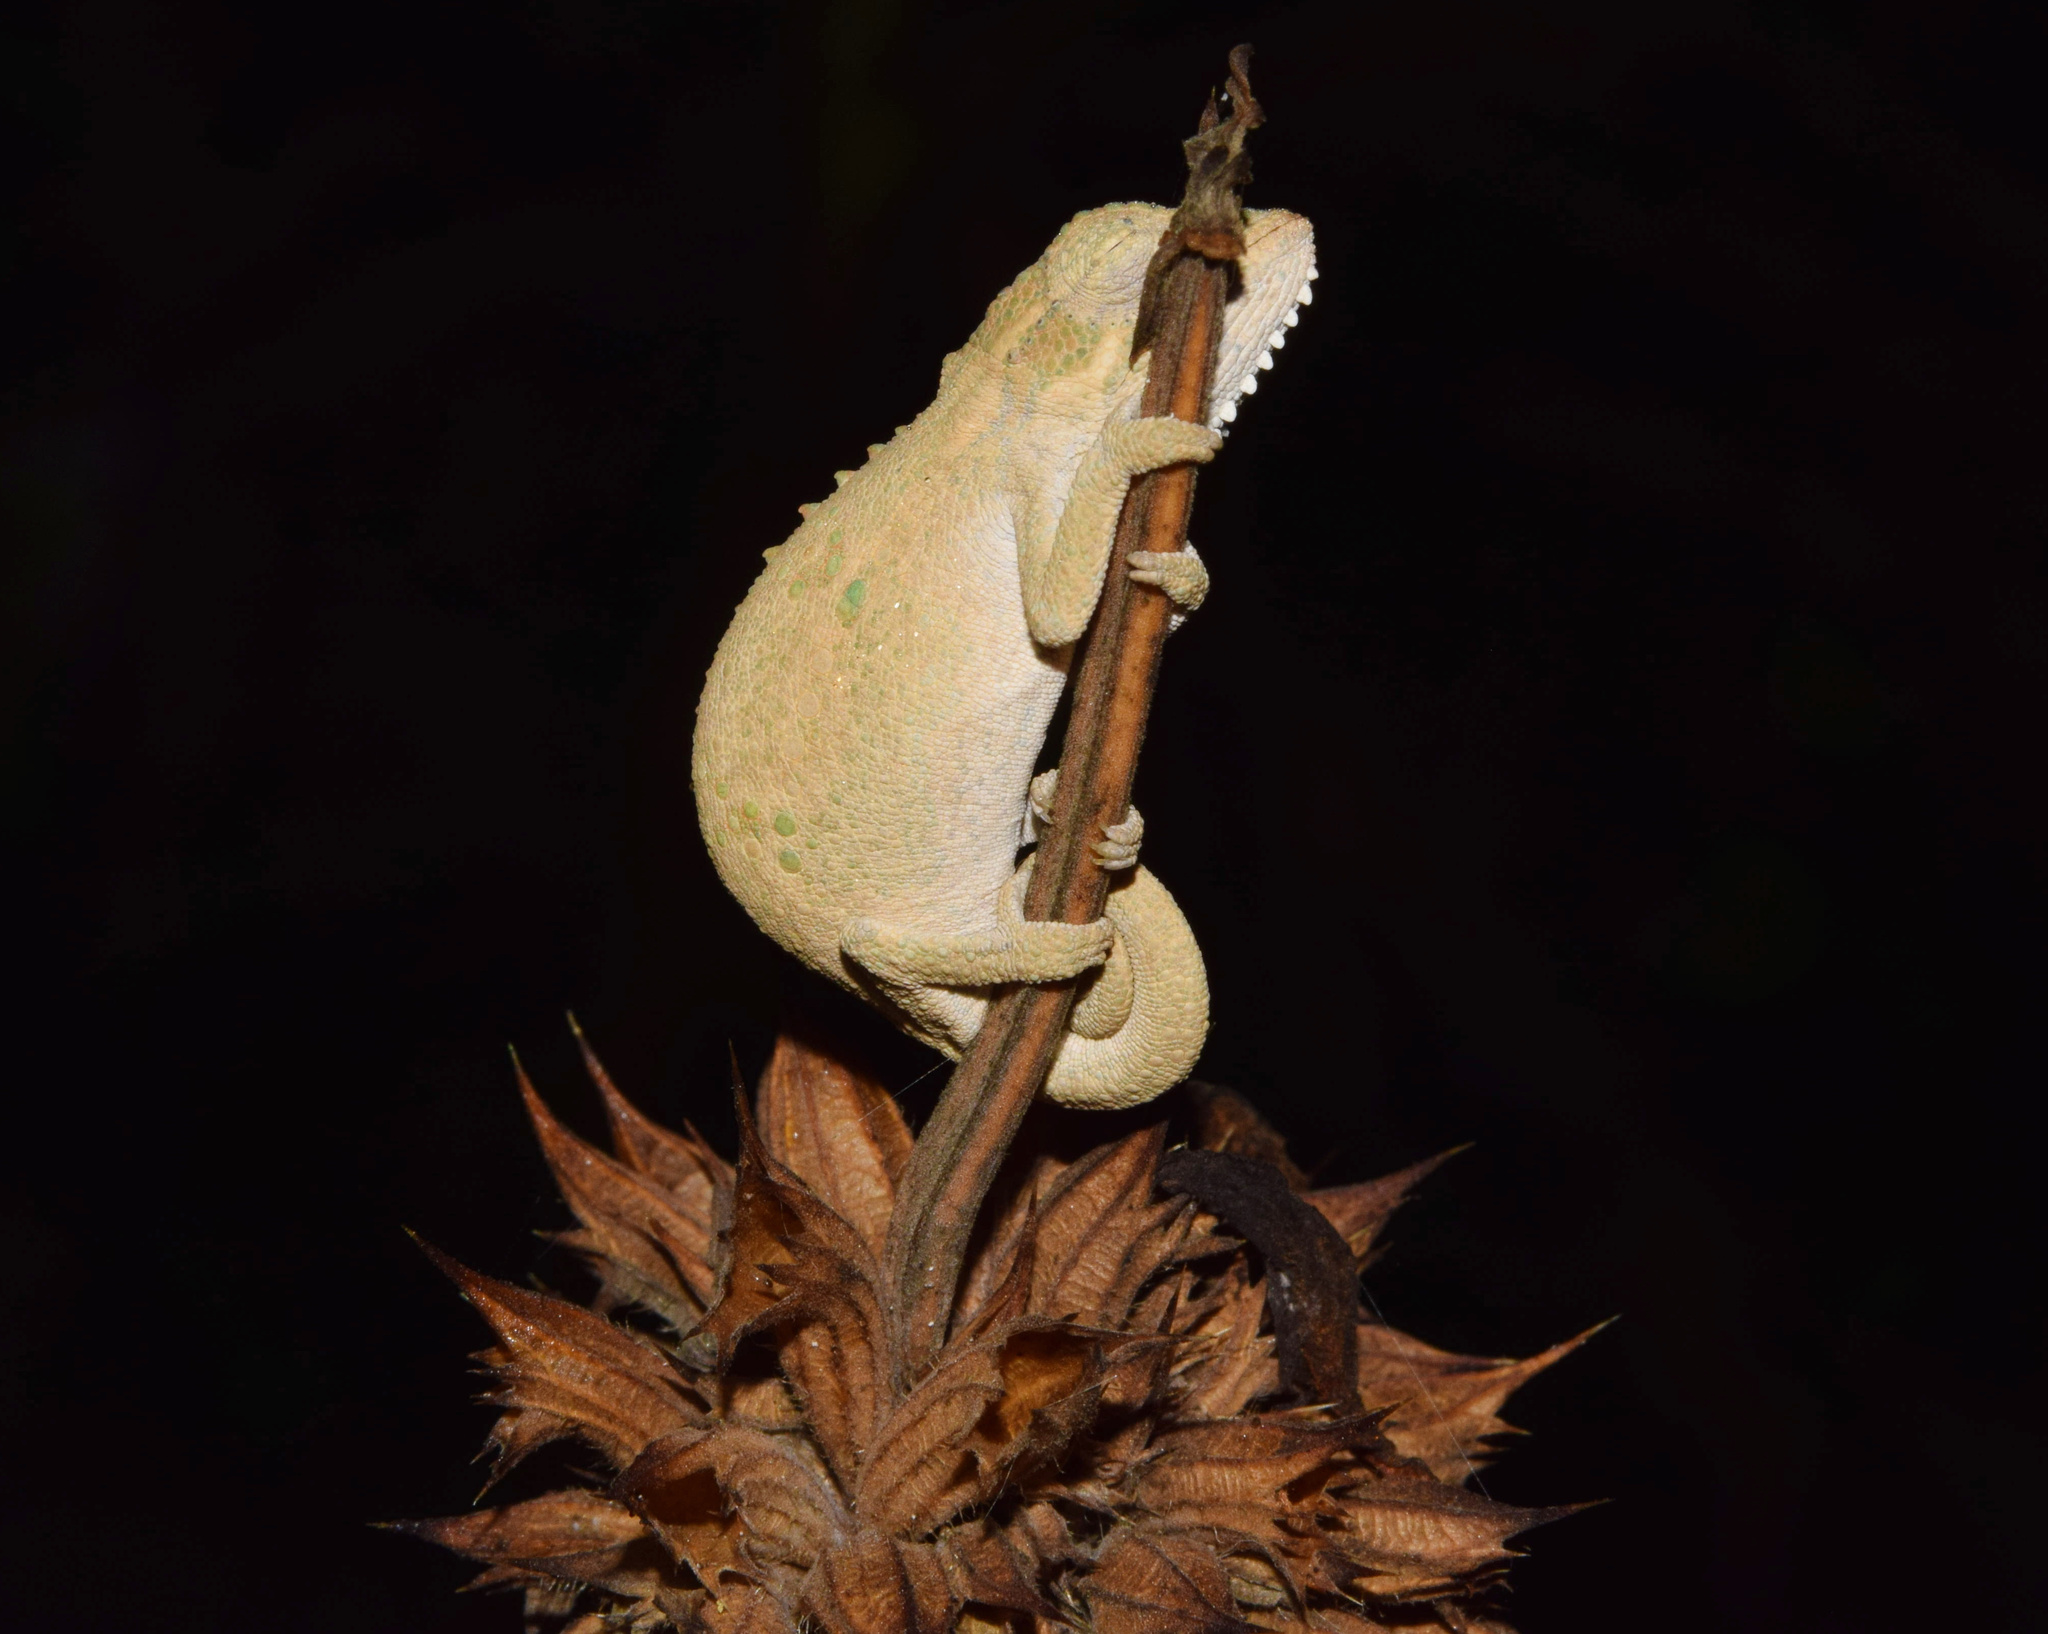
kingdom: Animalia
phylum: Chordata
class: Squamata
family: Chamaeleonidae
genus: Bradypodion
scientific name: Bradypodion melanocephalum
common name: Black-headed dwarf chameleon
